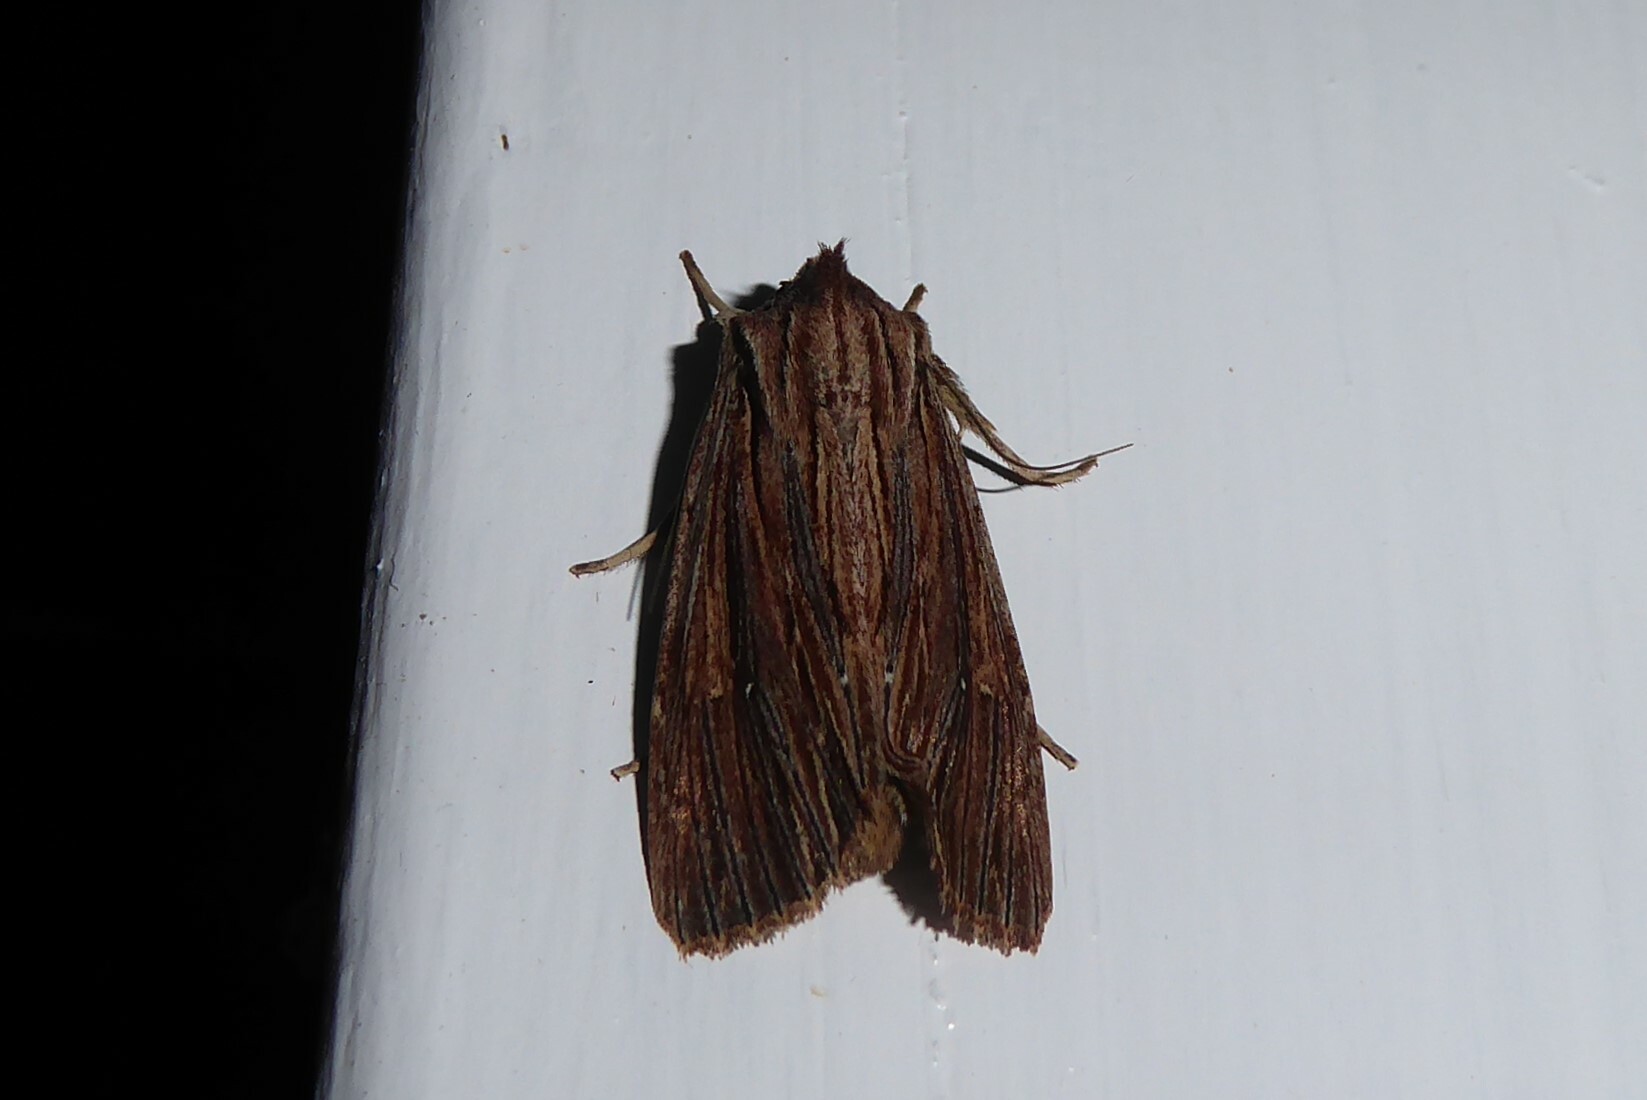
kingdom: Animalia
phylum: Arthropoda
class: Insecta
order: Lepidoptera
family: Noctuidae
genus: Ichneutica
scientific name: Ichneutica
